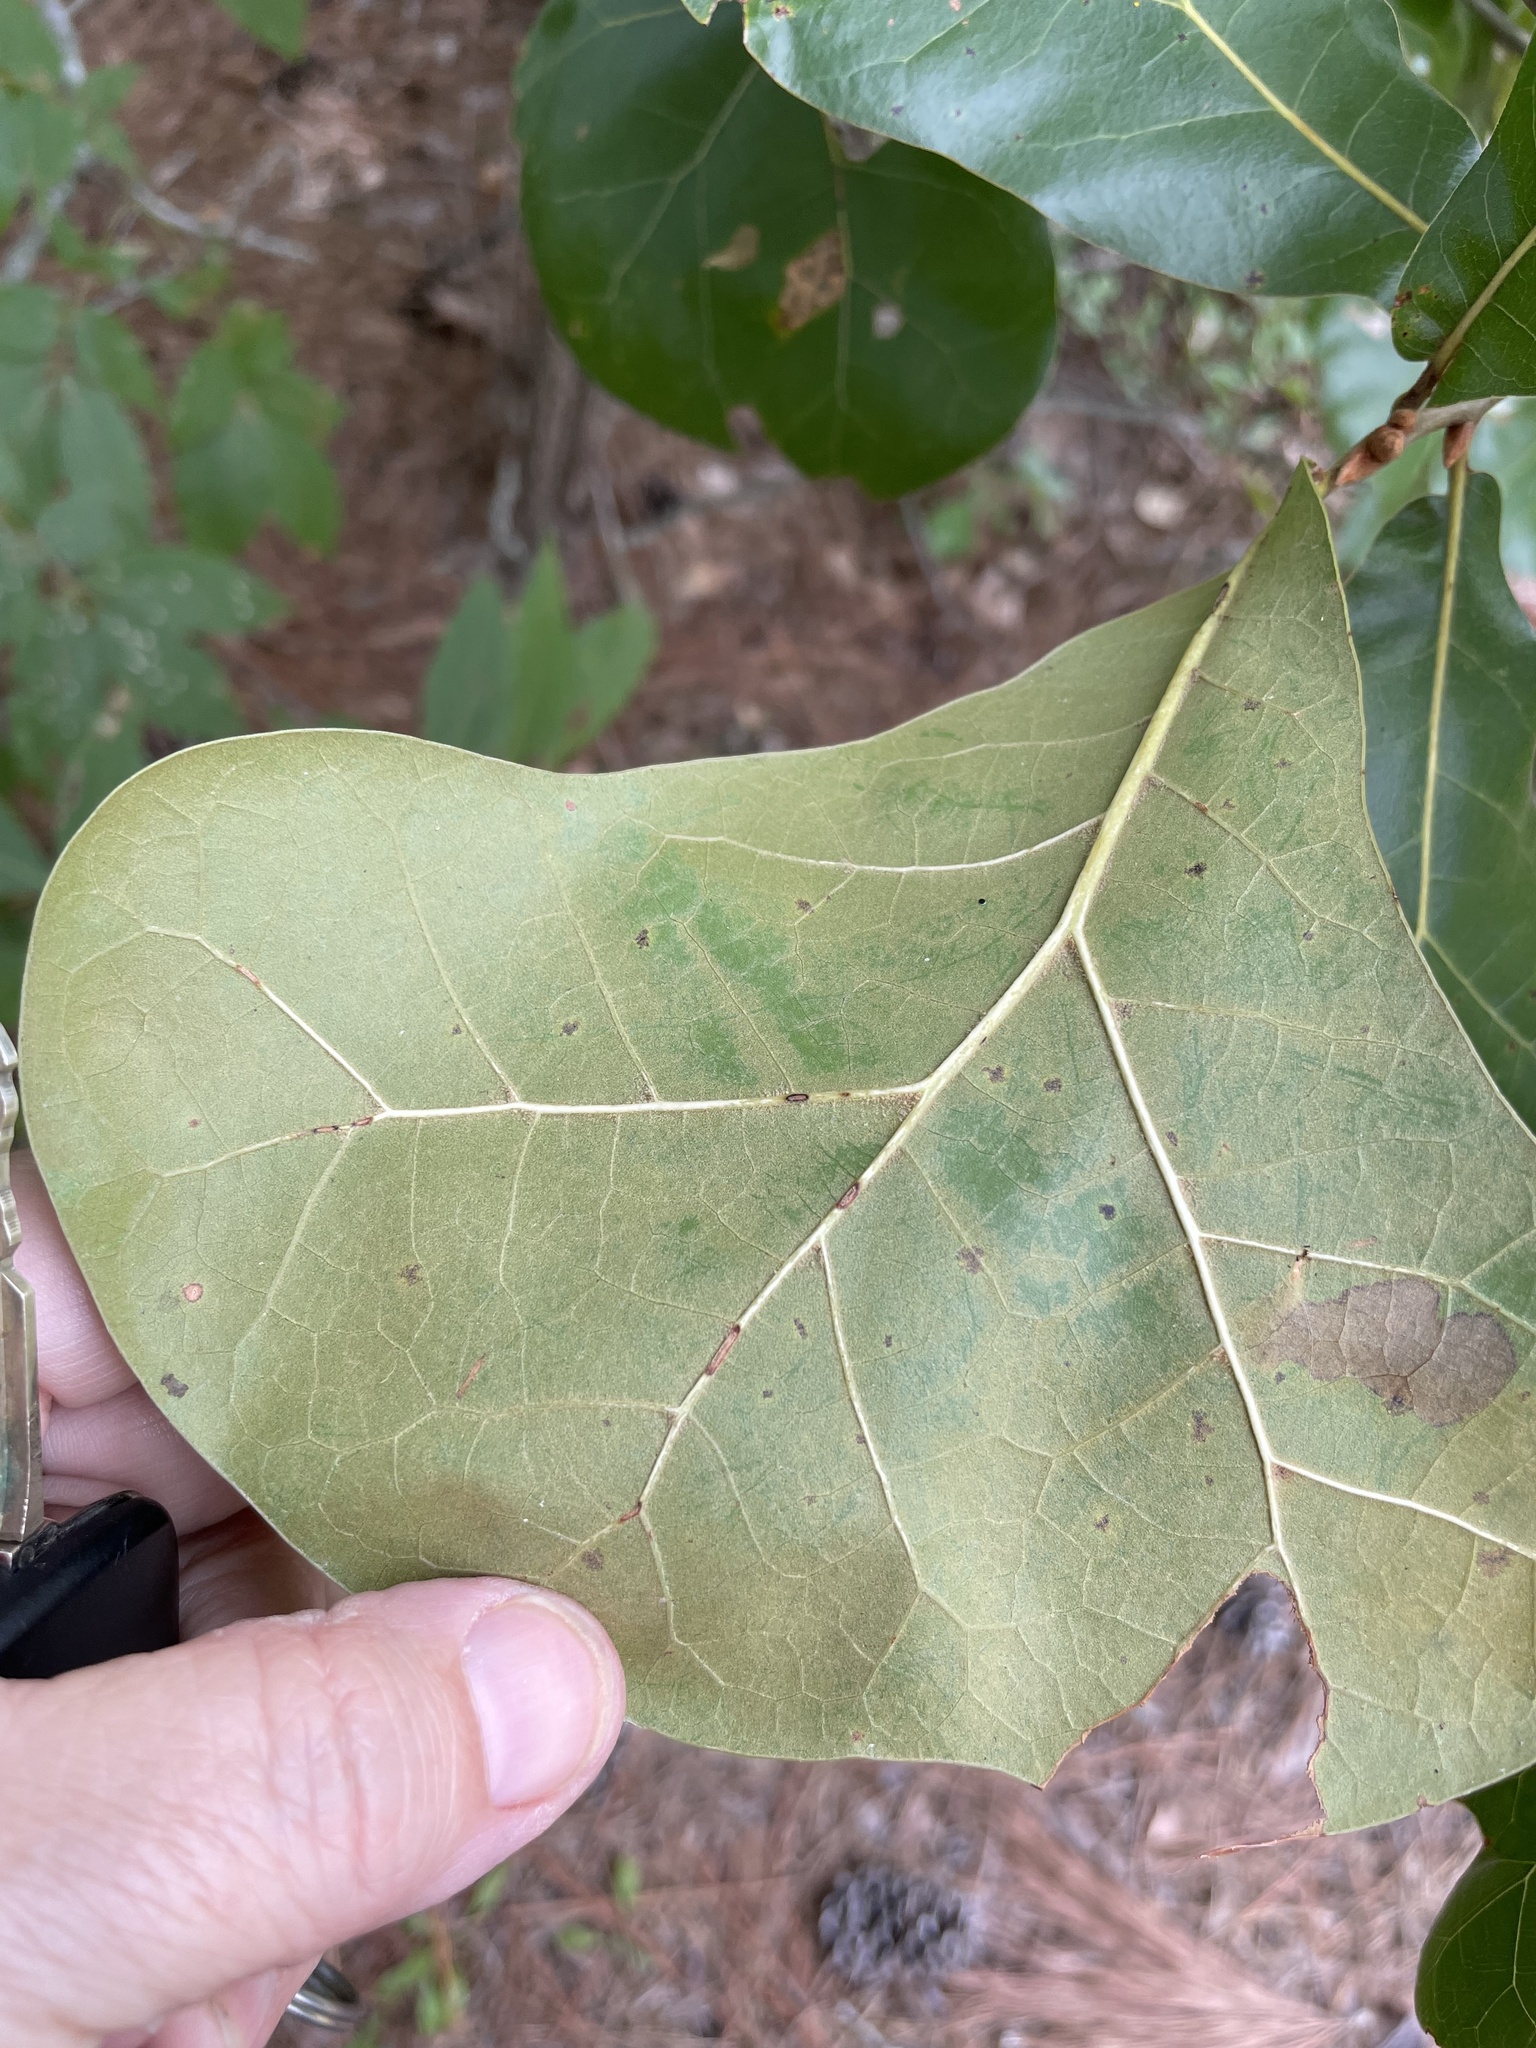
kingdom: Plantae
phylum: Tracheophyta
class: Magnoliopsida
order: Fagales
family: Fagaceae
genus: Quercus
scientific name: Quercus marilandica
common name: Blackjack oak
